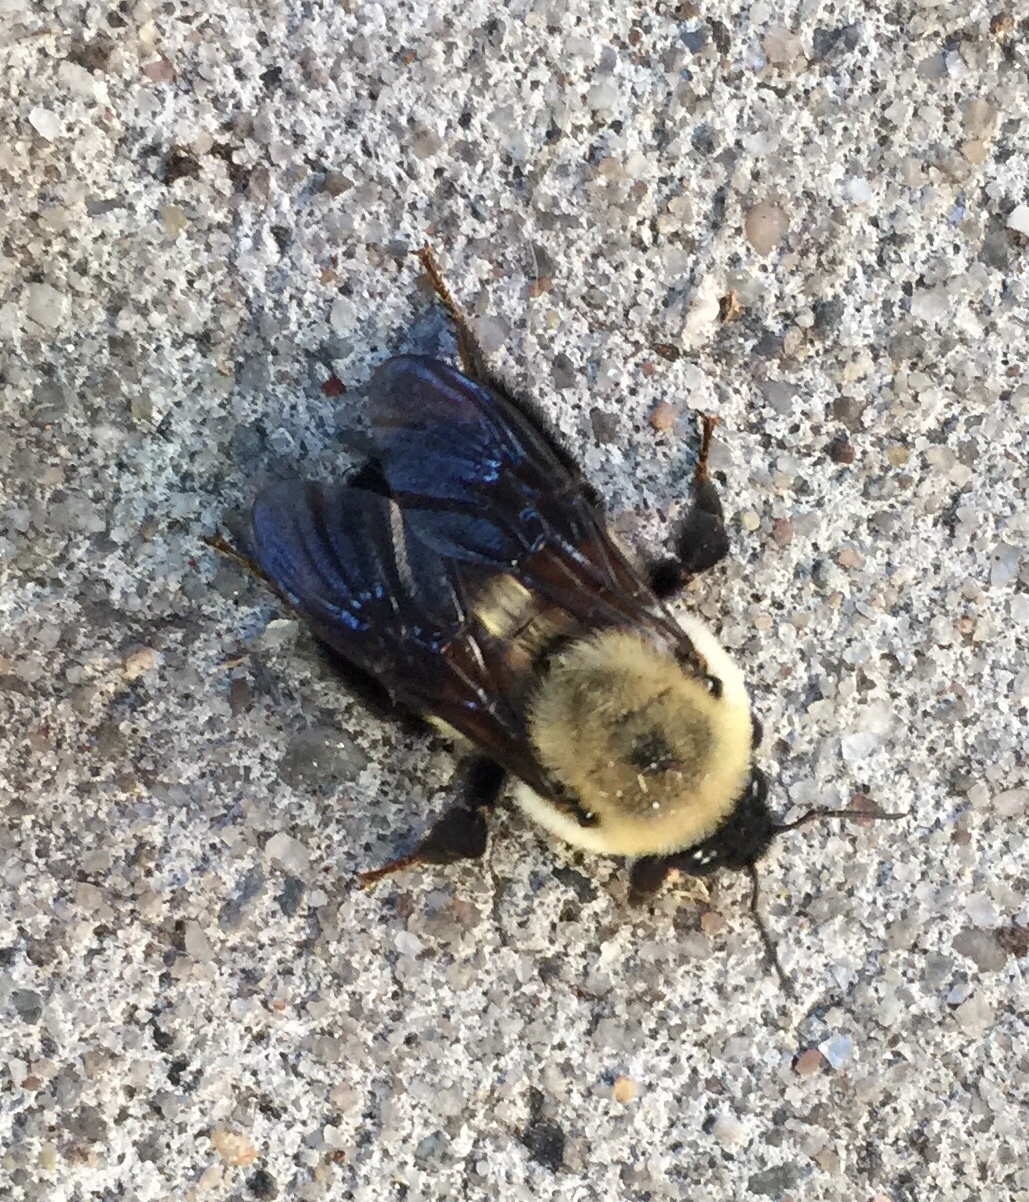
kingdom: Animalia
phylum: Arthropoda
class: Insecta
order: Hymenoptera
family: Apidae
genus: Bombus
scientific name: Bombus griseocollis
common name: Brown-belted bumble bee
